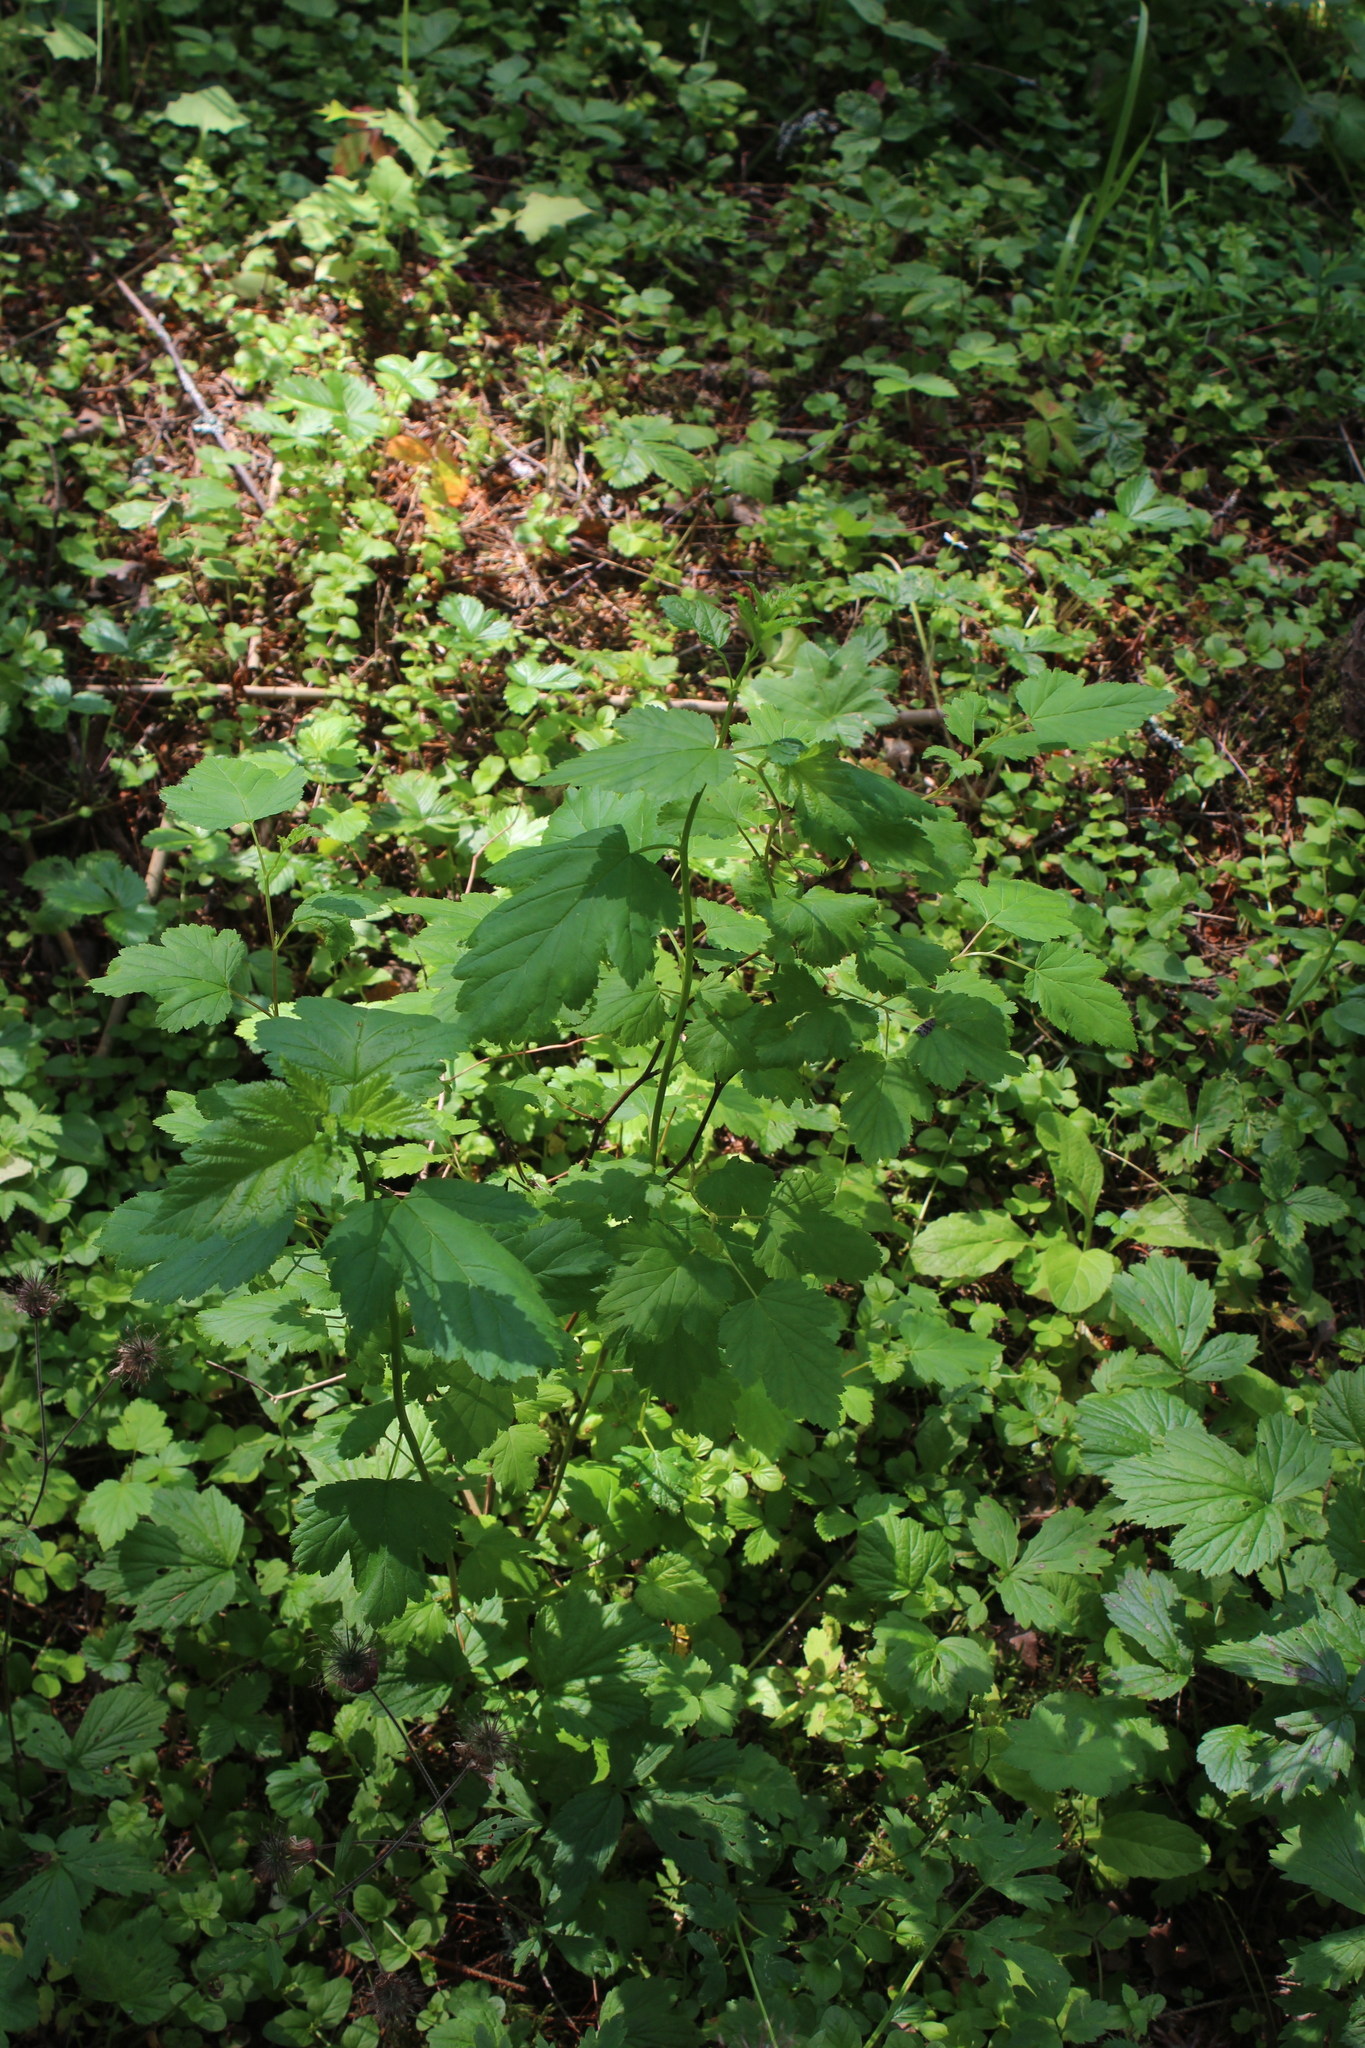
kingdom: Plantae
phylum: Tracheophyta
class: Magnoliopsida
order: Rosales
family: Rosaceae
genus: Physocarpus
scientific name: Physocarpus opulifolius
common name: Ninebark
